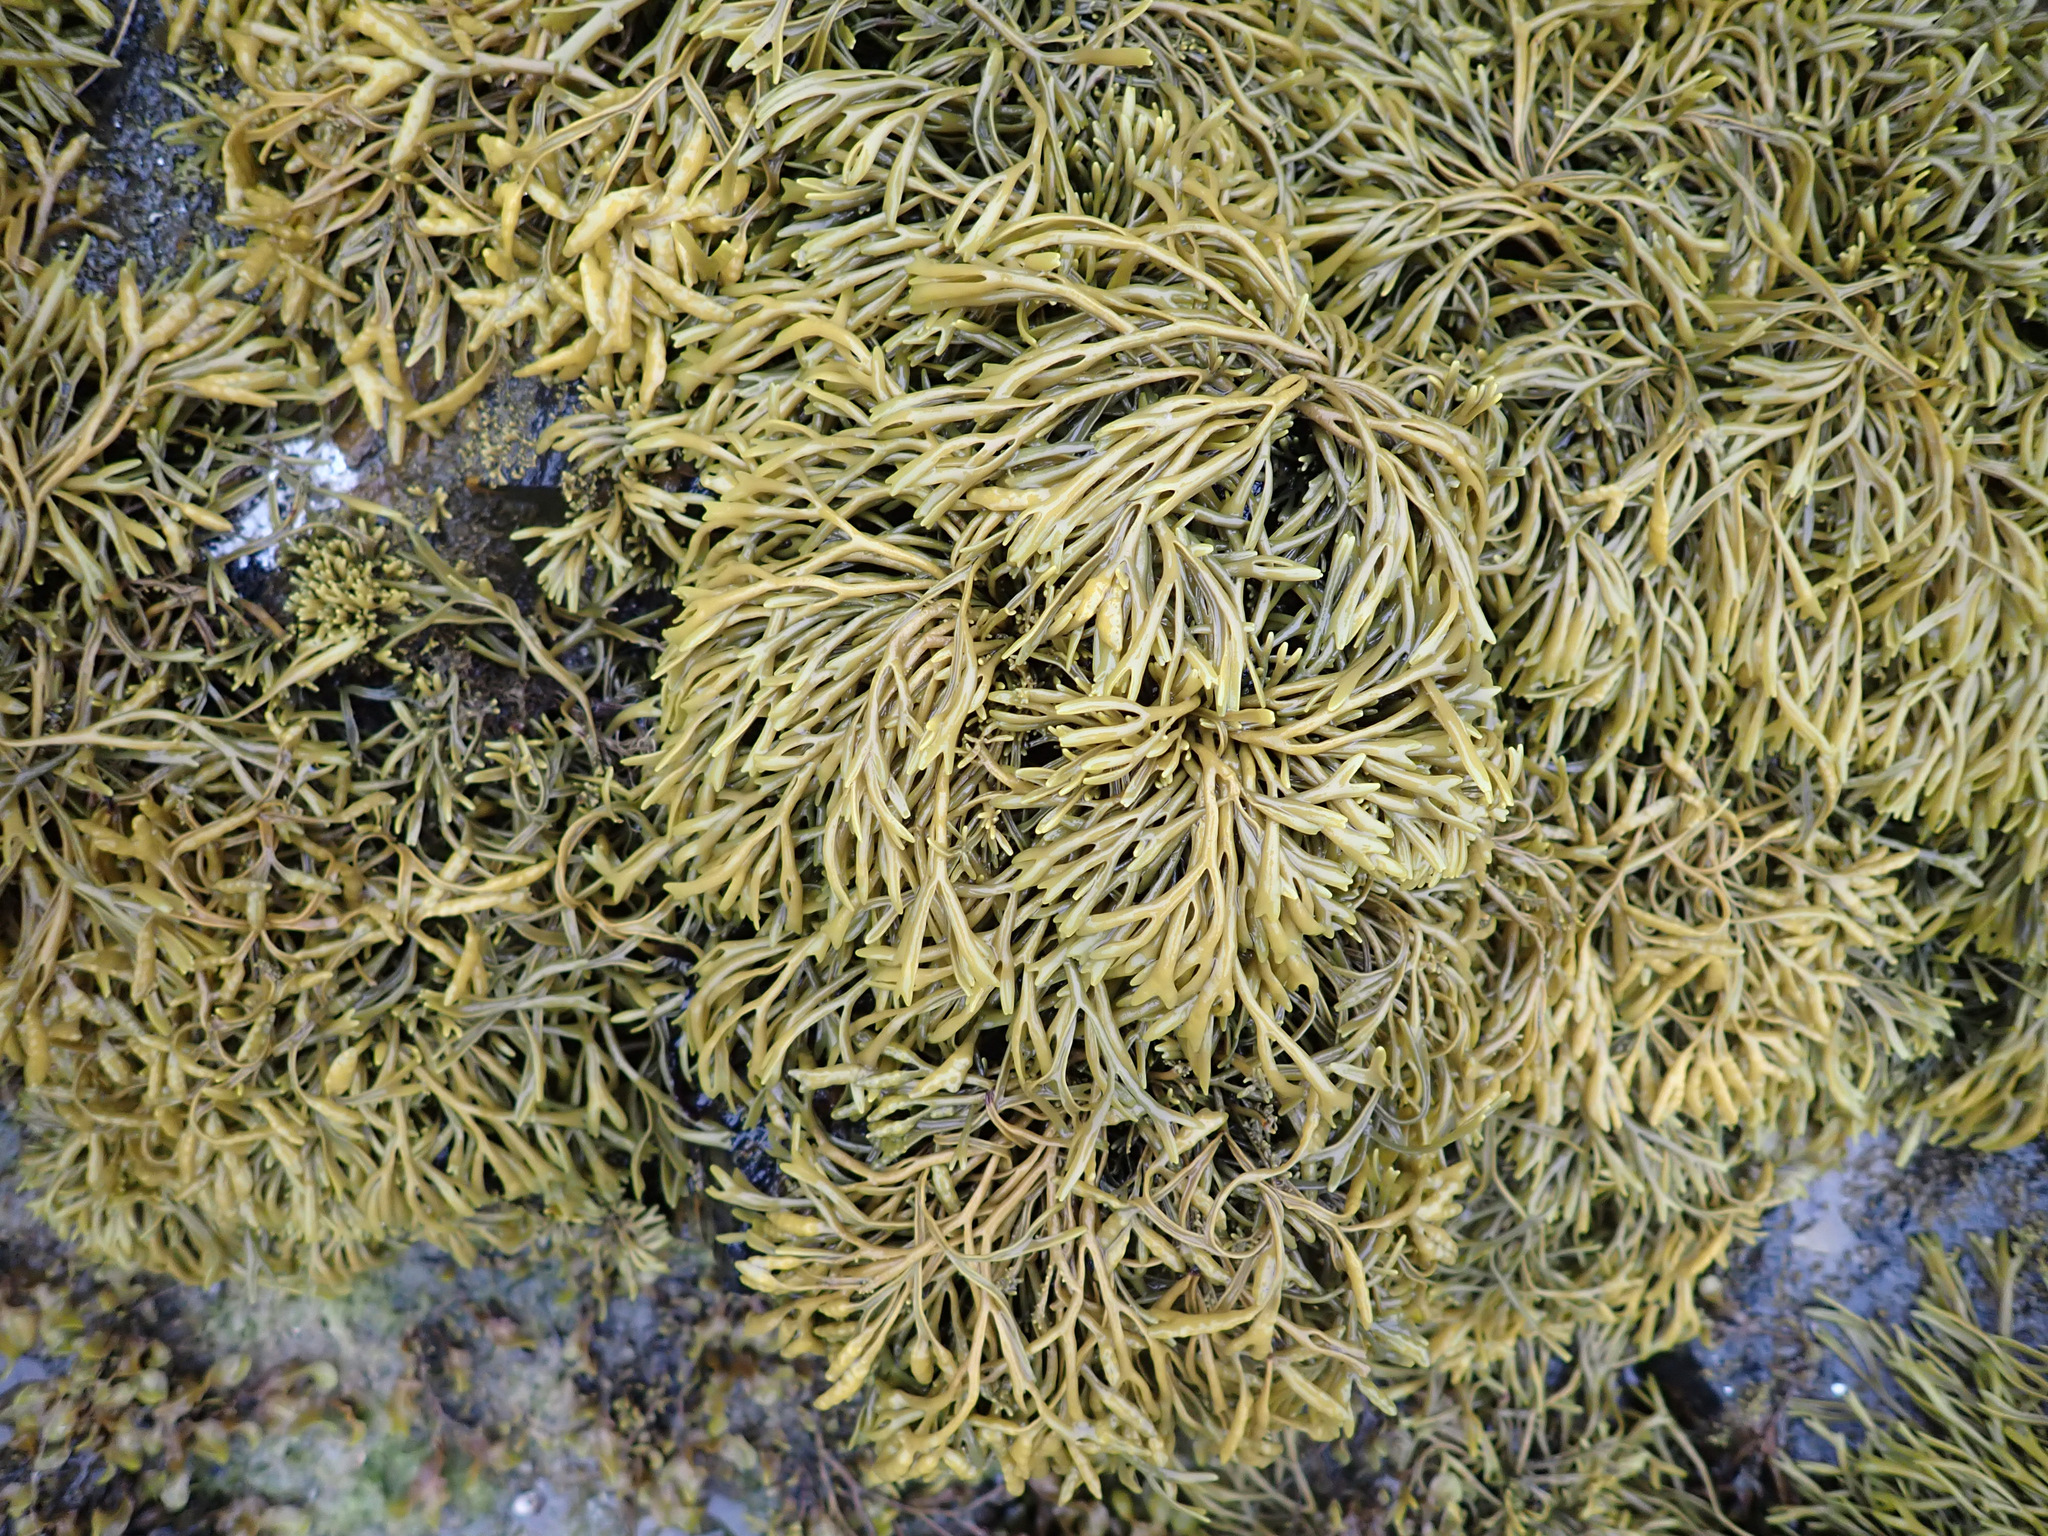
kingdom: Chromista
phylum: Ochrophyta
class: Phaeophyceae
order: Fucales
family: Fucaceae
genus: Pelvetia
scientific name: Pelvetia canaliculata
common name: Channelled wrack
